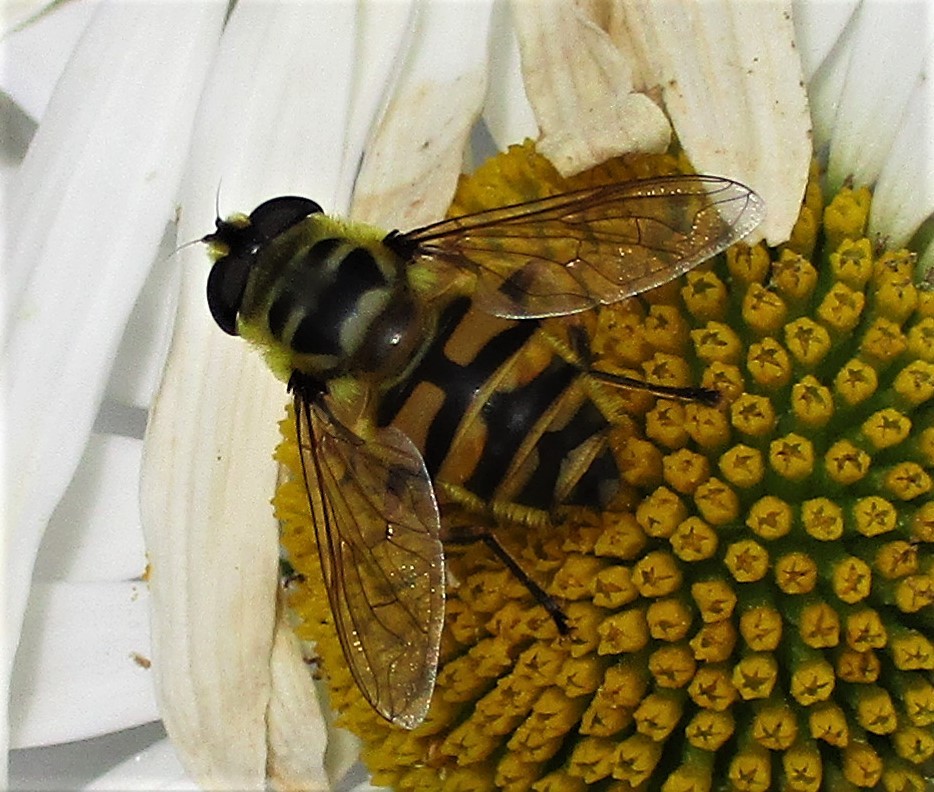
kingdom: Animalia
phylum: Arthropoda
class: Insecta
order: Diptera
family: Syrphidae
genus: Myathropa
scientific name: Myathropa florea
